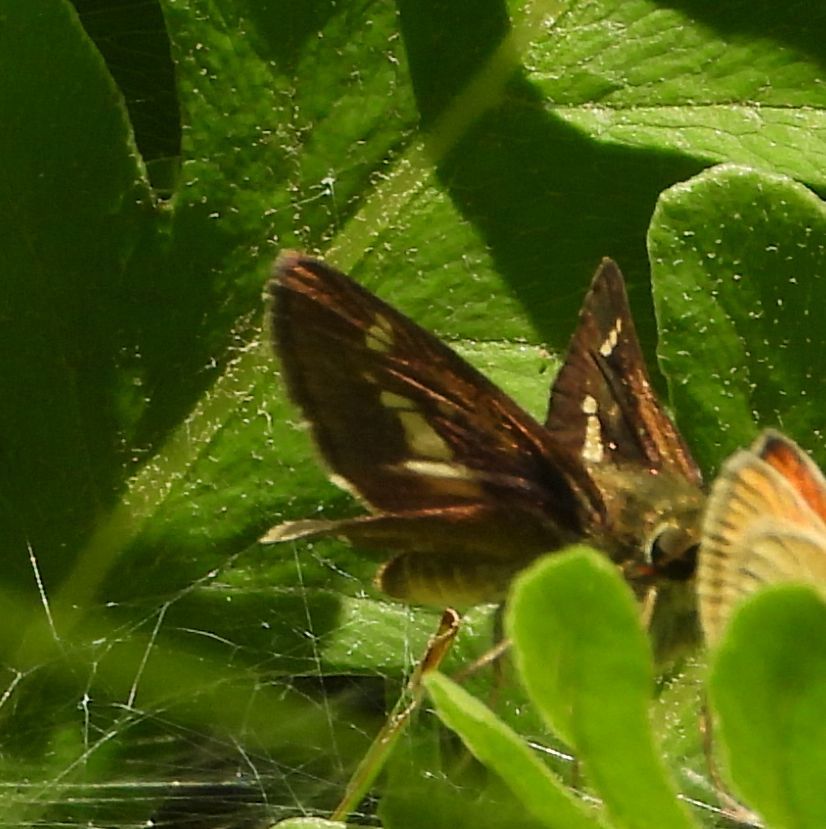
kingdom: Animalia
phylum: Arthropoda
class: Insecta
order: Lepidoptera
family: Hesperiidae
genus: Vernia
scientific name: Vernia verna
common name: Little glassywing
